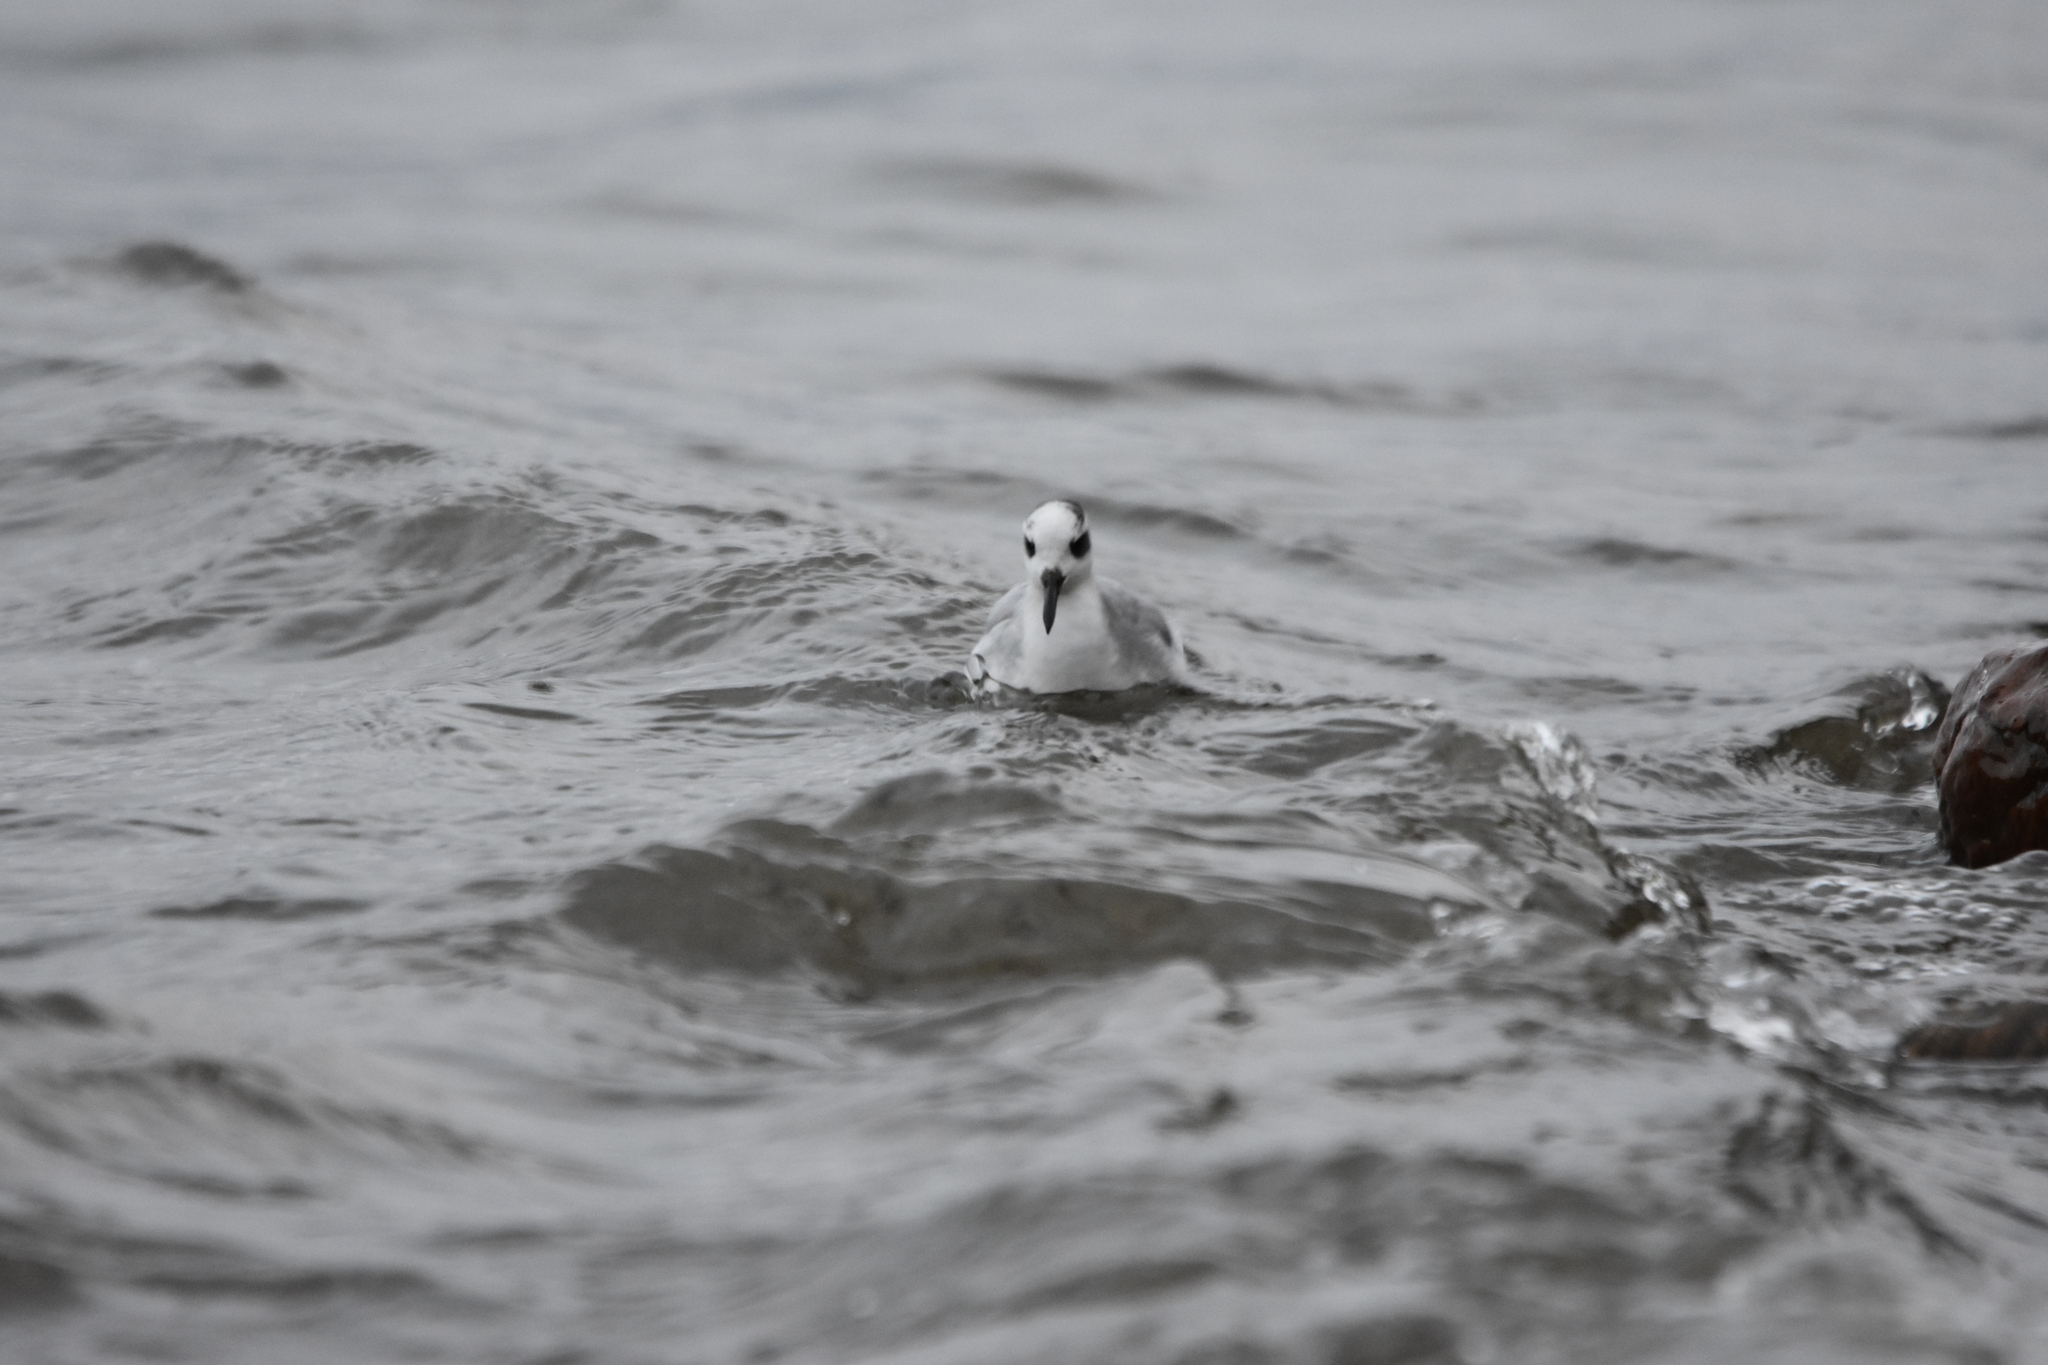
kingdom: Animalia
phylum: Chordata
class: Aves
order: Charadriiformes
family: Scolopacidae
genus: Phalaropus
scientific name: Phalaropus fulicarius
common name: Red phalarope
